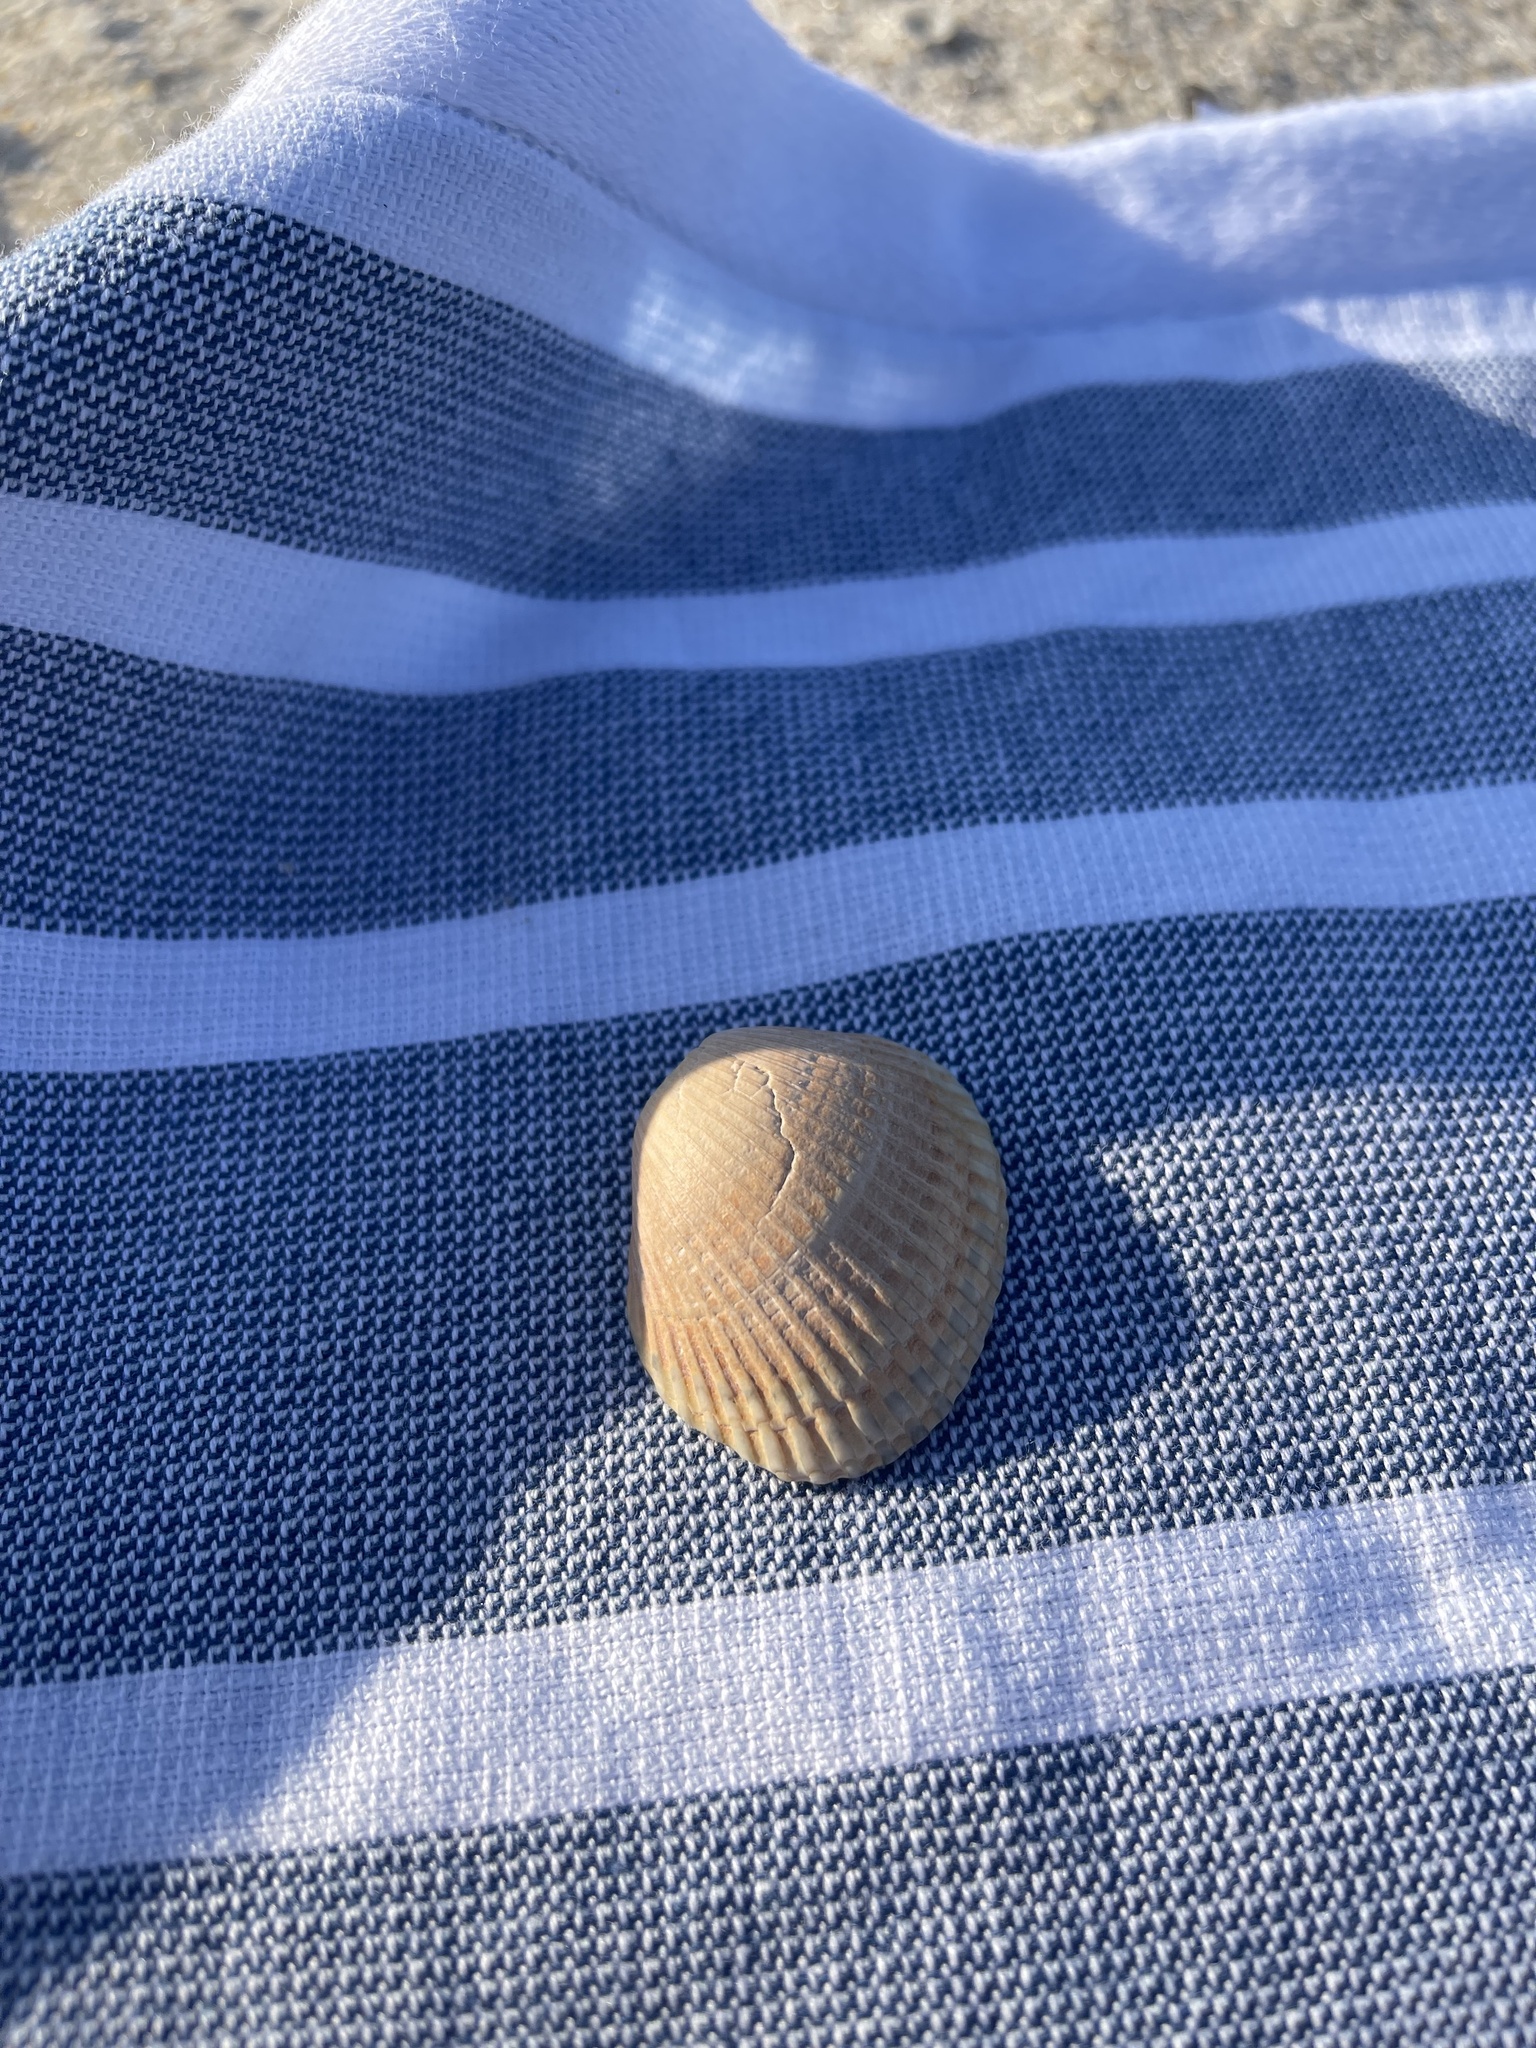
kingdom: Animalia
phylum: Mollusca
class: Bivalvia
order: Arcida
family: Arcidae
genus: Lunarca
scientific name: Lunarca ovalis
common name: Blood ark
